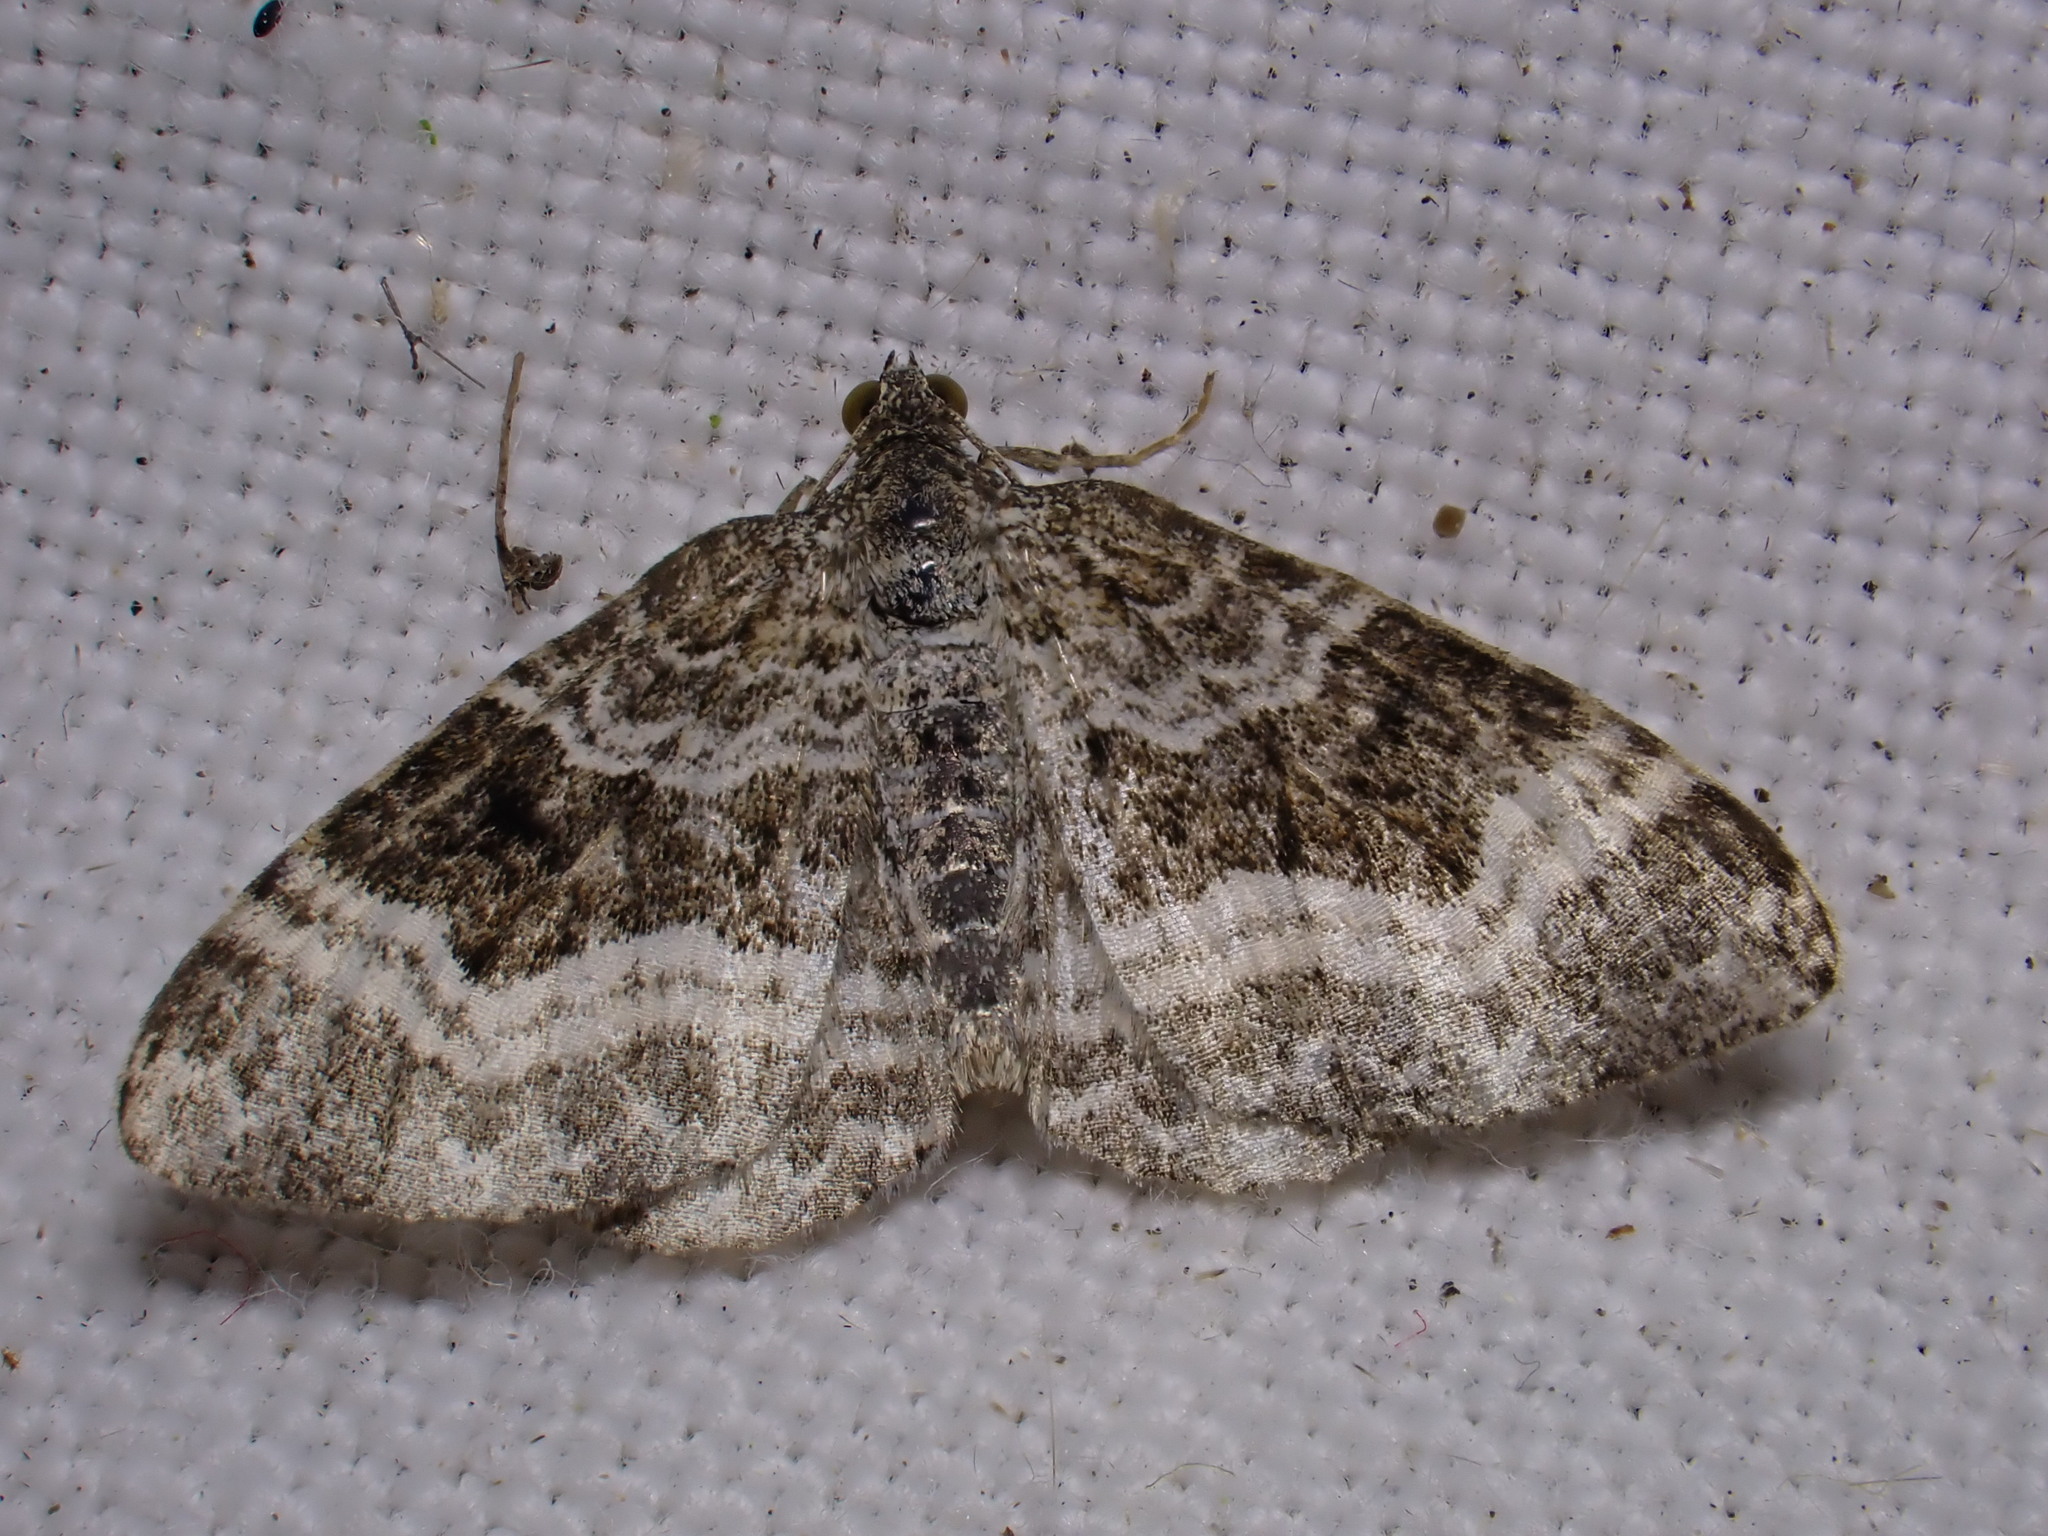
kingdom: Animalia
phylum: Arthropoda
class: Insecta
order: Lepidoptera
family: Geometridae
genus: Epirrhoe
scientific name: Epirrhoe alternata
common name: Common carpet
